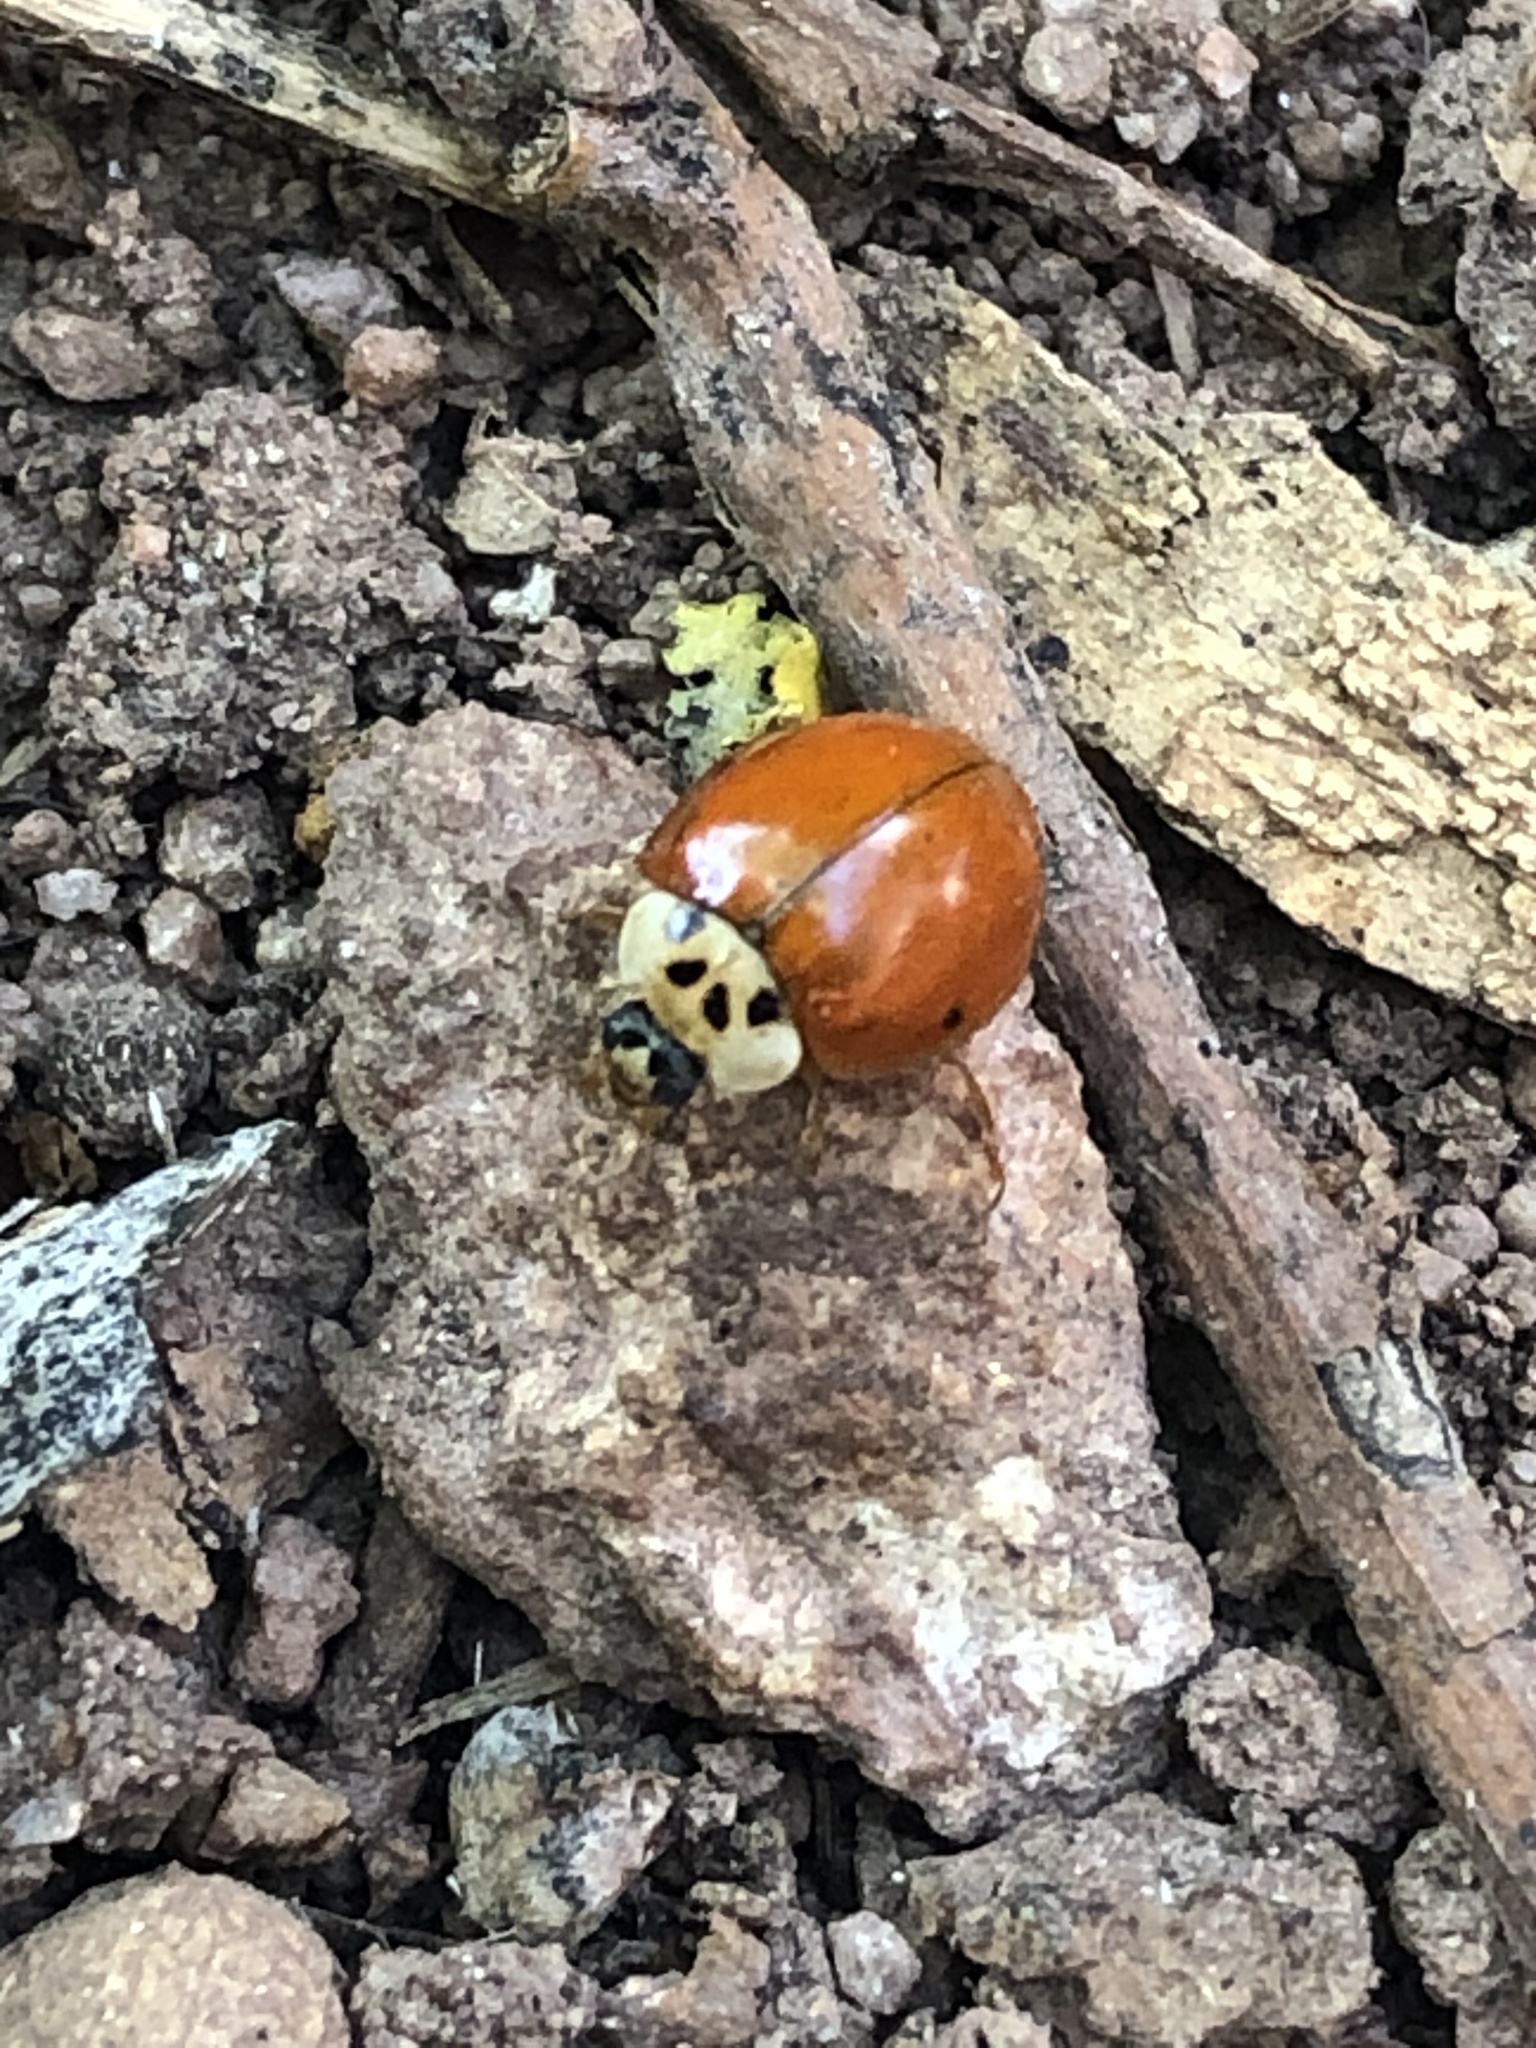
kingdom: Animalia
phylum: Arthropoda
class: Insecta
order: Coleoptera
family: Coccinellidae
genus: Harmonia
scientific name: Harmonia axyridis
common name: Harlequin ladybird
